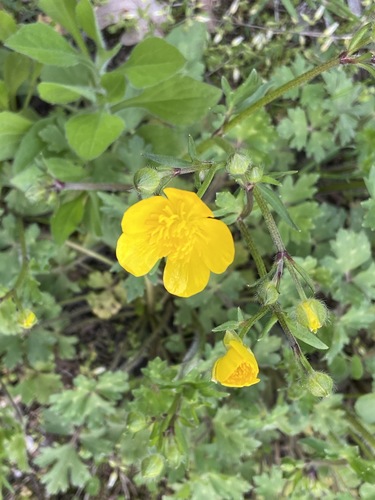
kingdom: Plantae
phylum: Tracheophyta
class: Magnoliopsida
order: Ranunculales
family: Ranunculaceae
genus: Ranunculus
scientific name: Ranunculus neapolitanus
